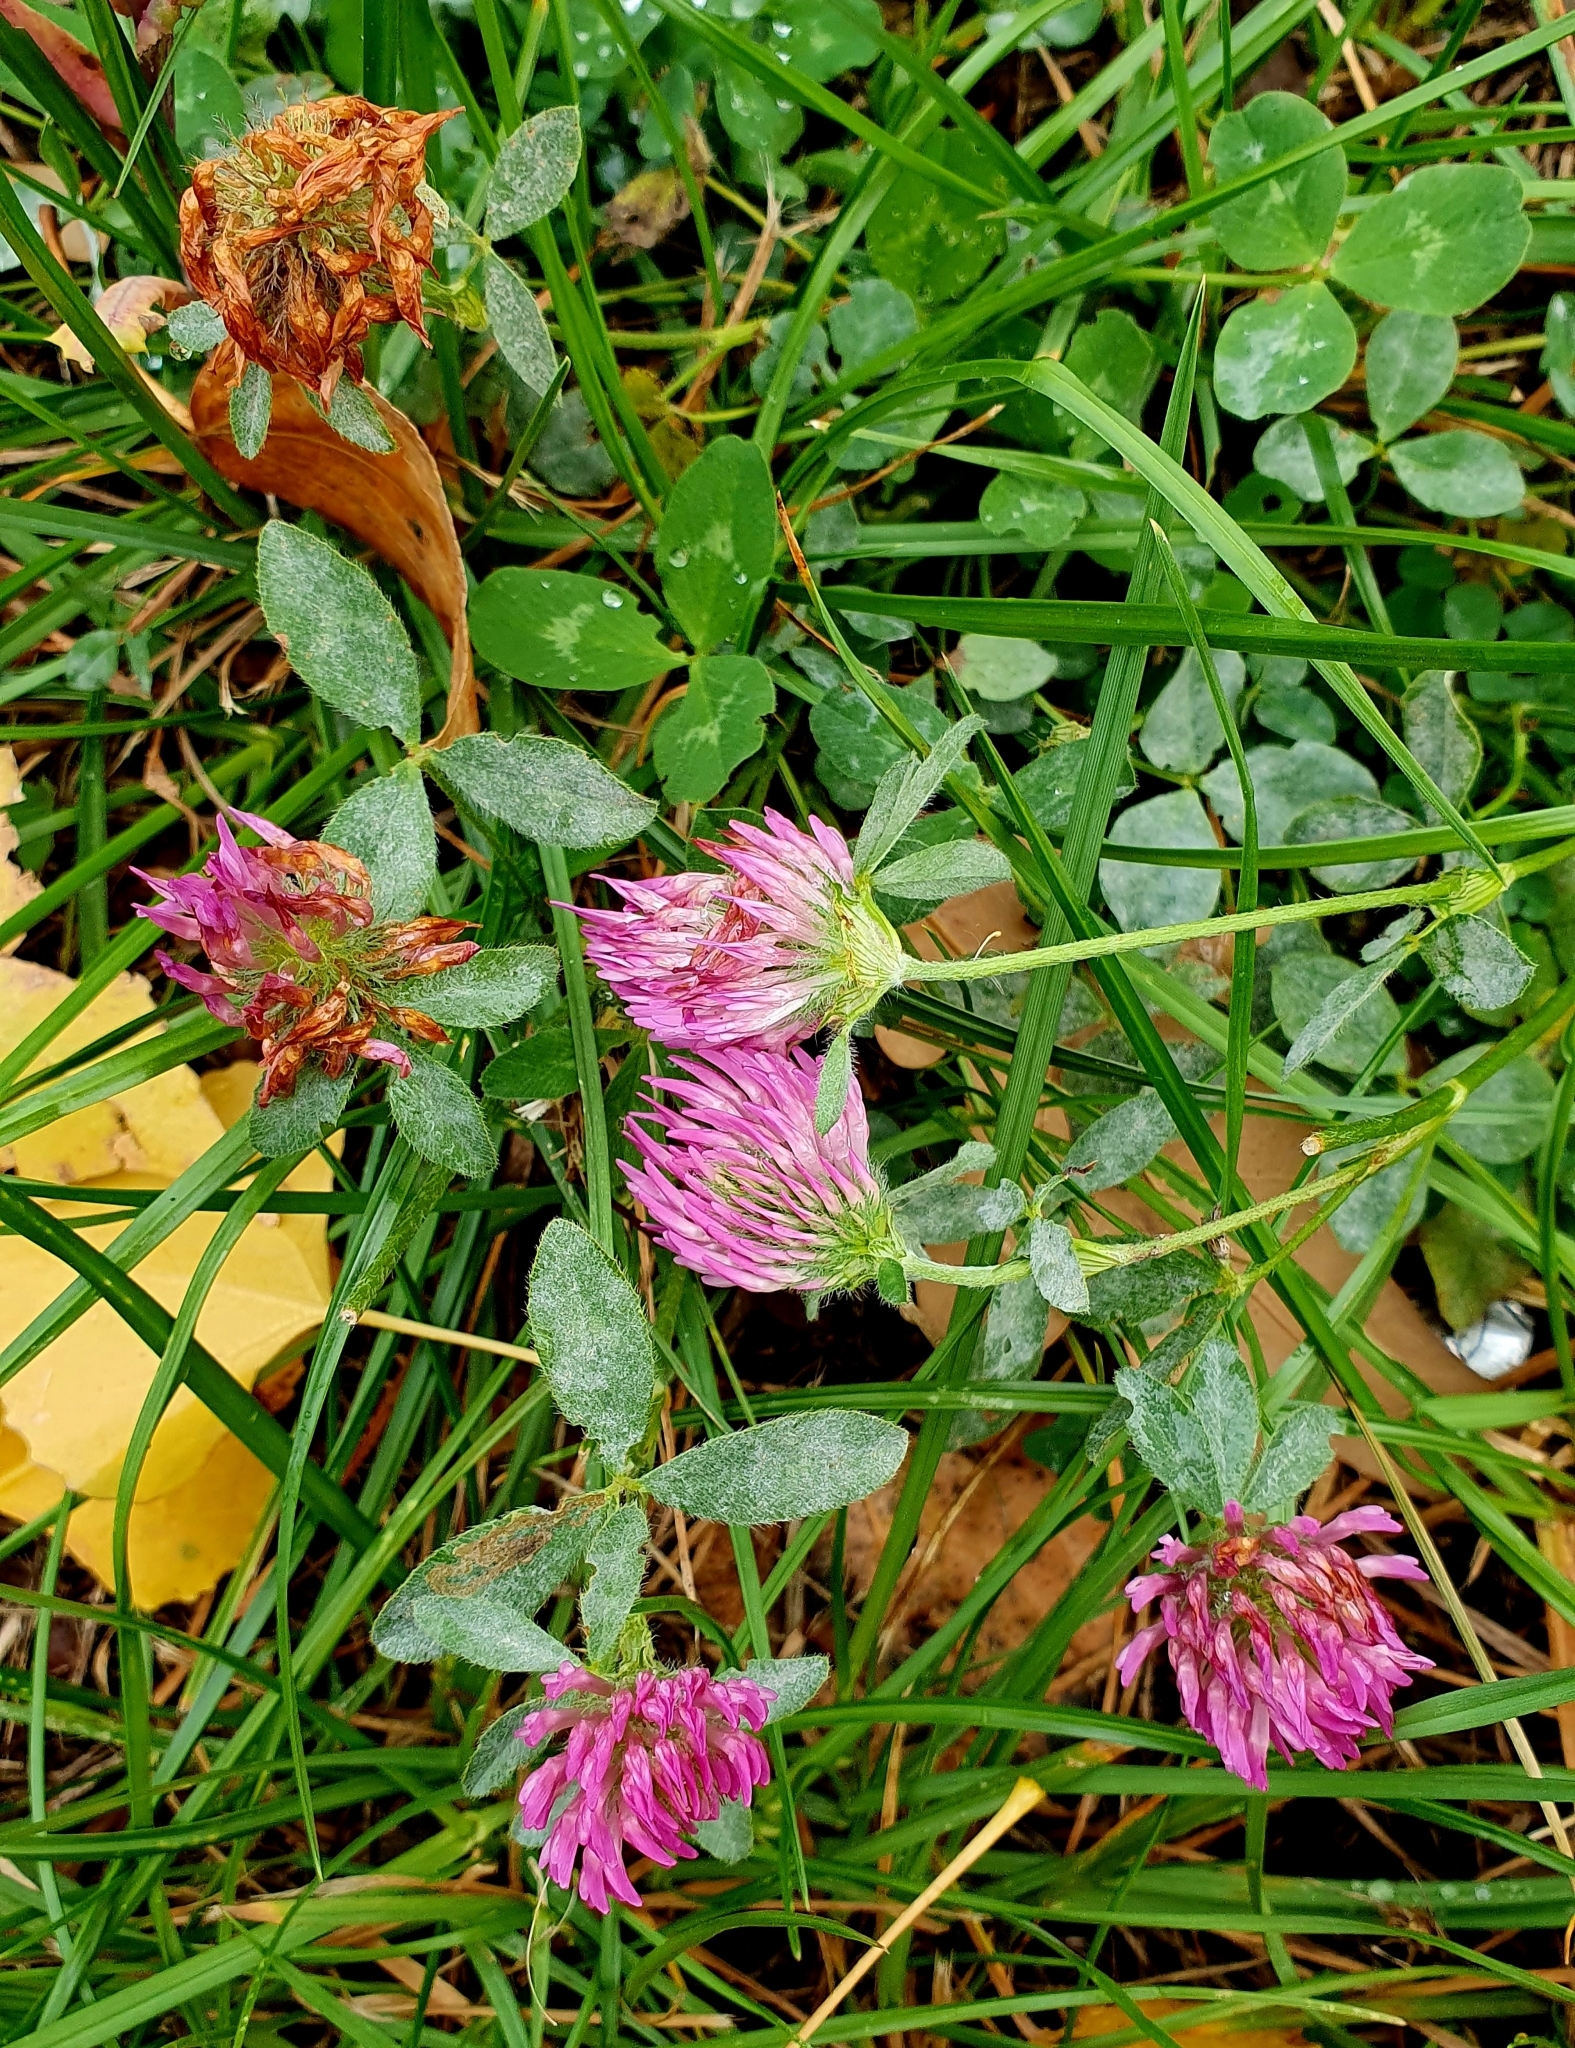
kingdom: Plantae
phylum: Tracheophyta
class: Magnoliopsida
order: Fabales
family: Fabaceae
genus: Trifolium
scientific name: Trifolium pratense
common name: Red clover
